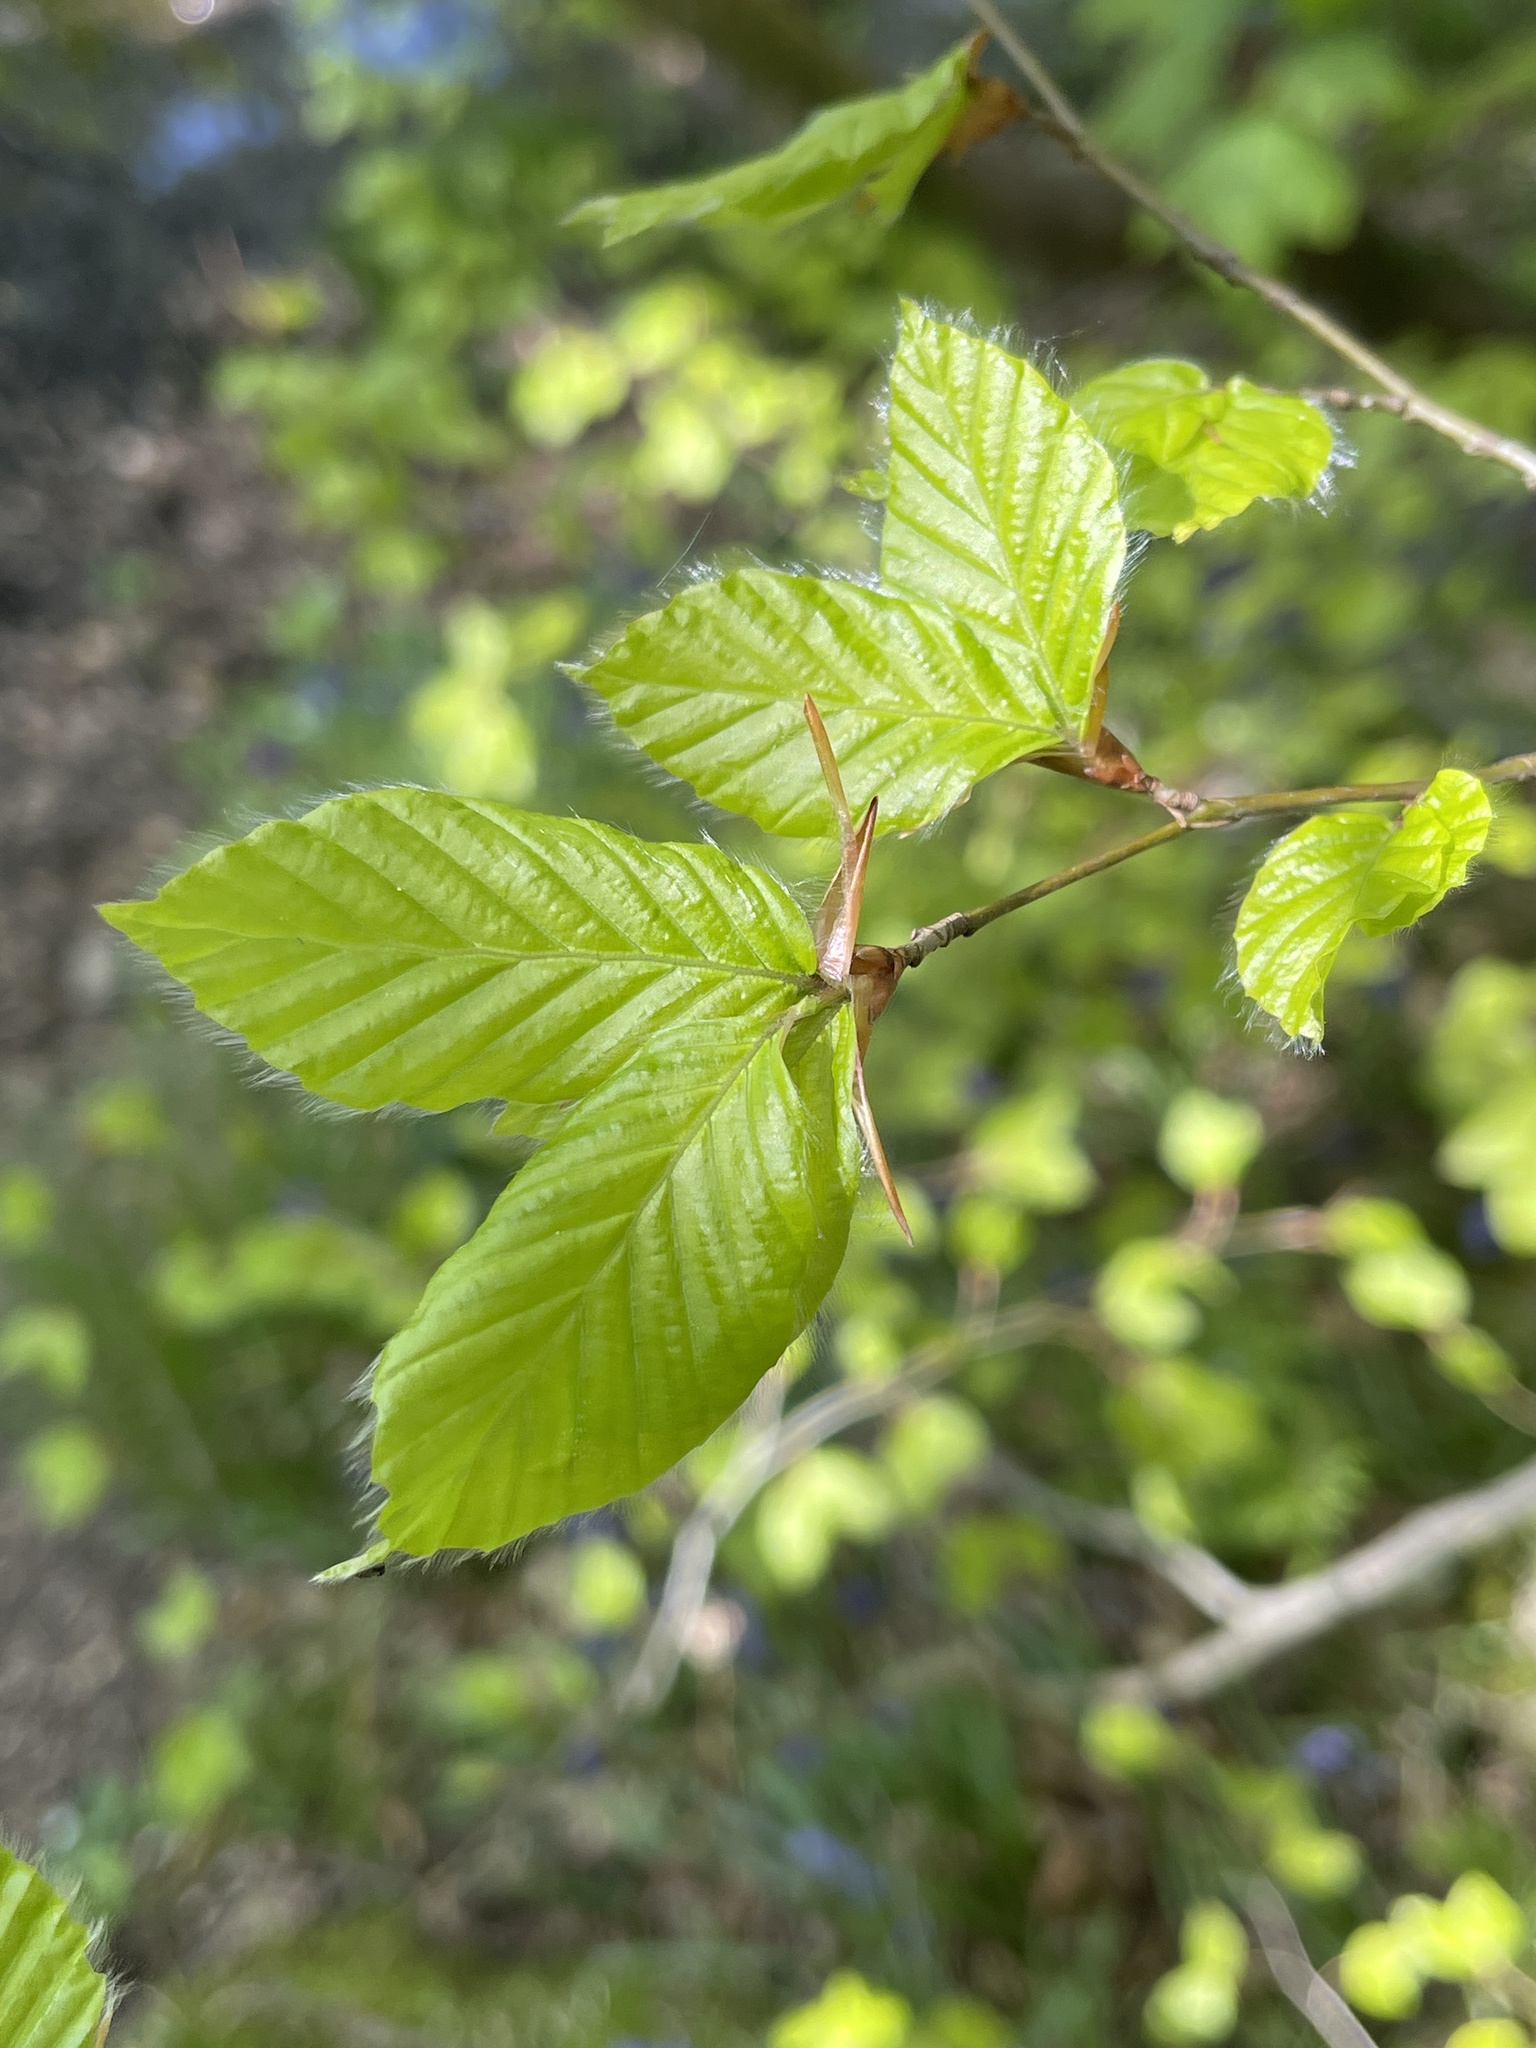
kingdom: Plantae
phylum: Tracheophyta
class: Magnoliopsida
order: Fagales
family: Fagaceae
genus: Fagus
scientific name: Fagus sylvatica
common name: Beech
